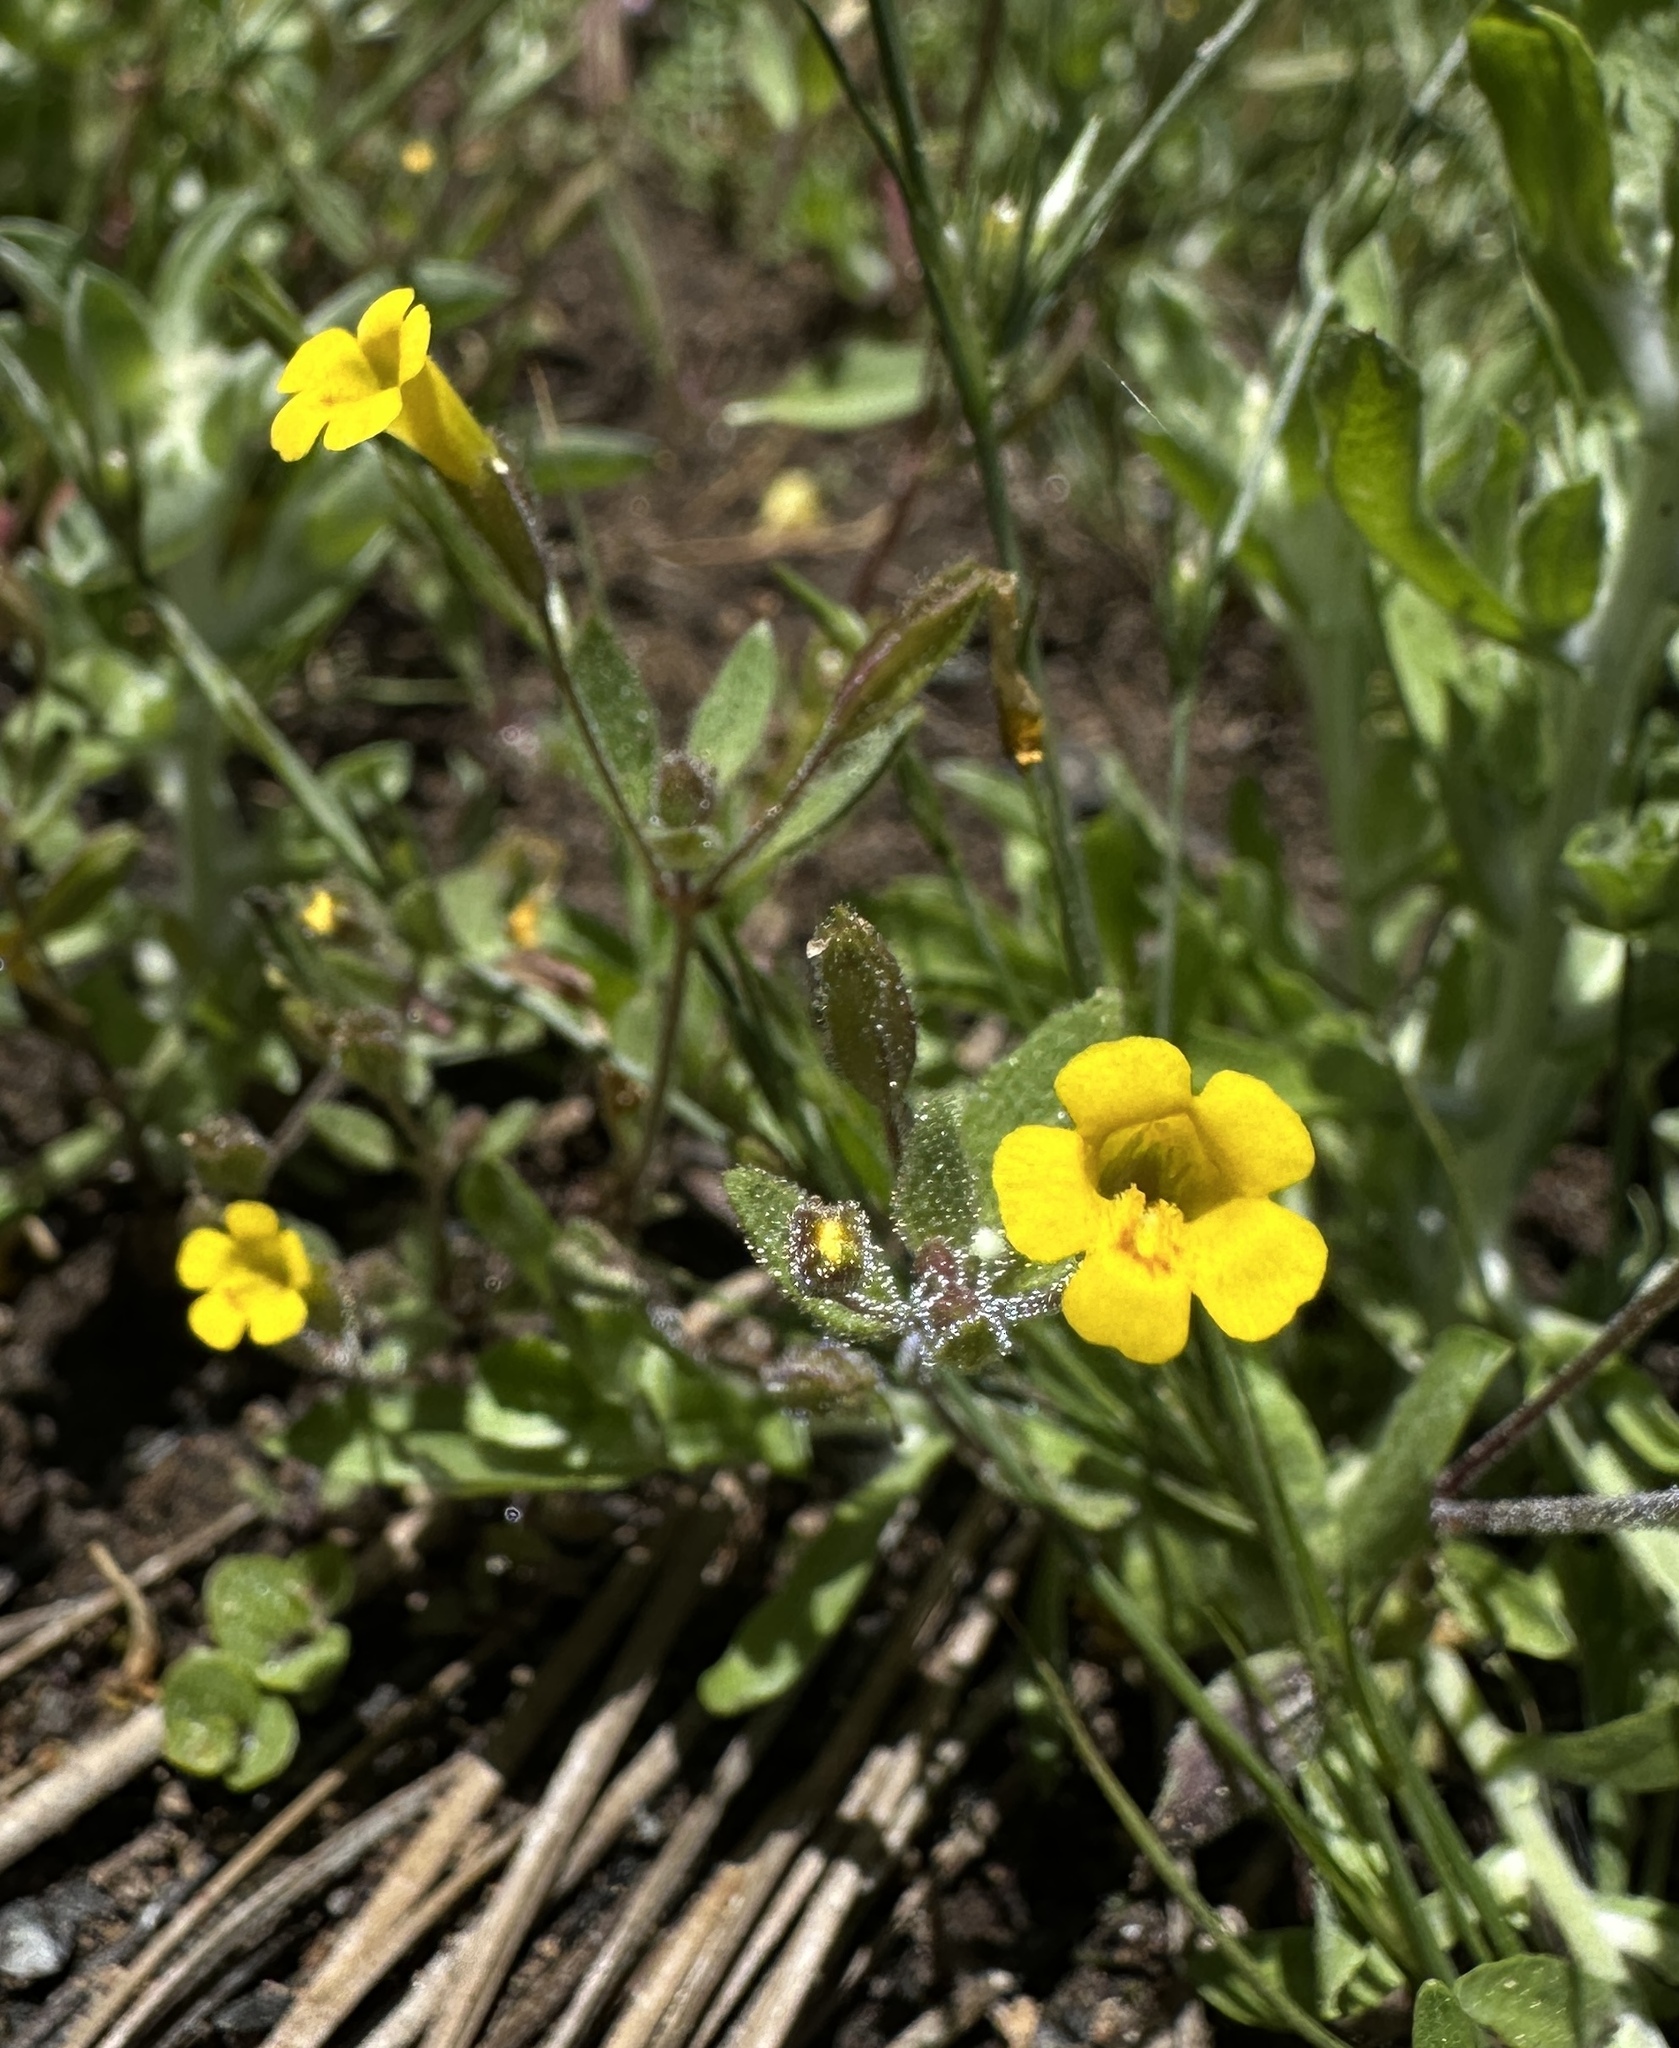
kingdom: Plantae
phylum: Tracheophyta
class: Magnoliopsida
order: Lamiales
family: Phrymaceae
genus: Erythranthe
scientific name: Erythranthe pulsiferae
